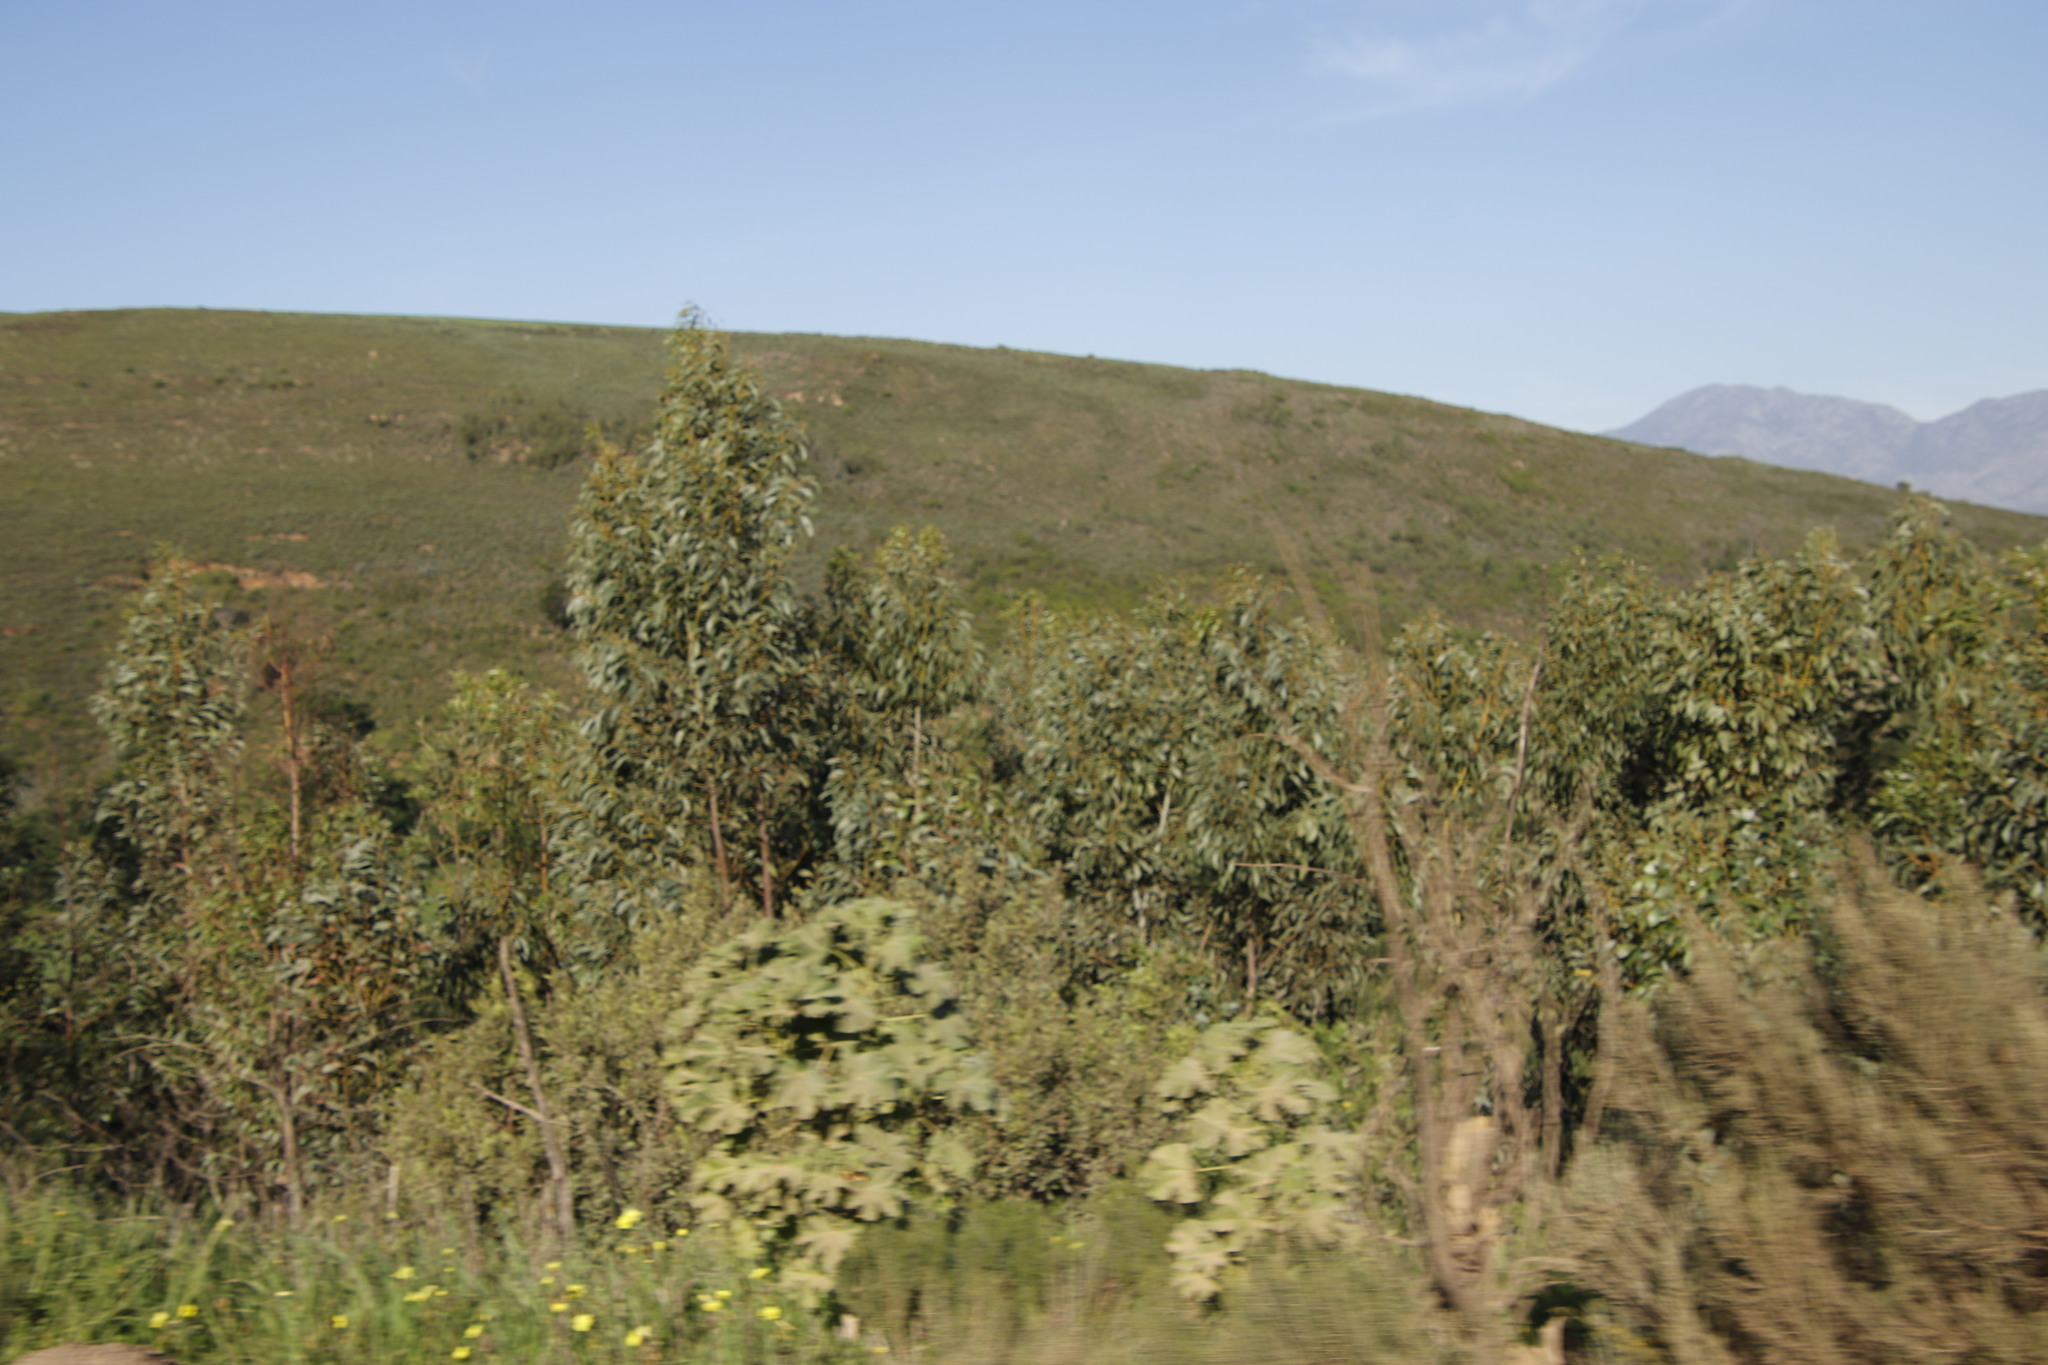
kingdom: Plantae
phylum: Tracheophyta
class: Magnoliopsida
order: Fabales
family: Fabaceae
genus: Acacia
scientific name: Acacia pycnantha
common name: Golden wattle
